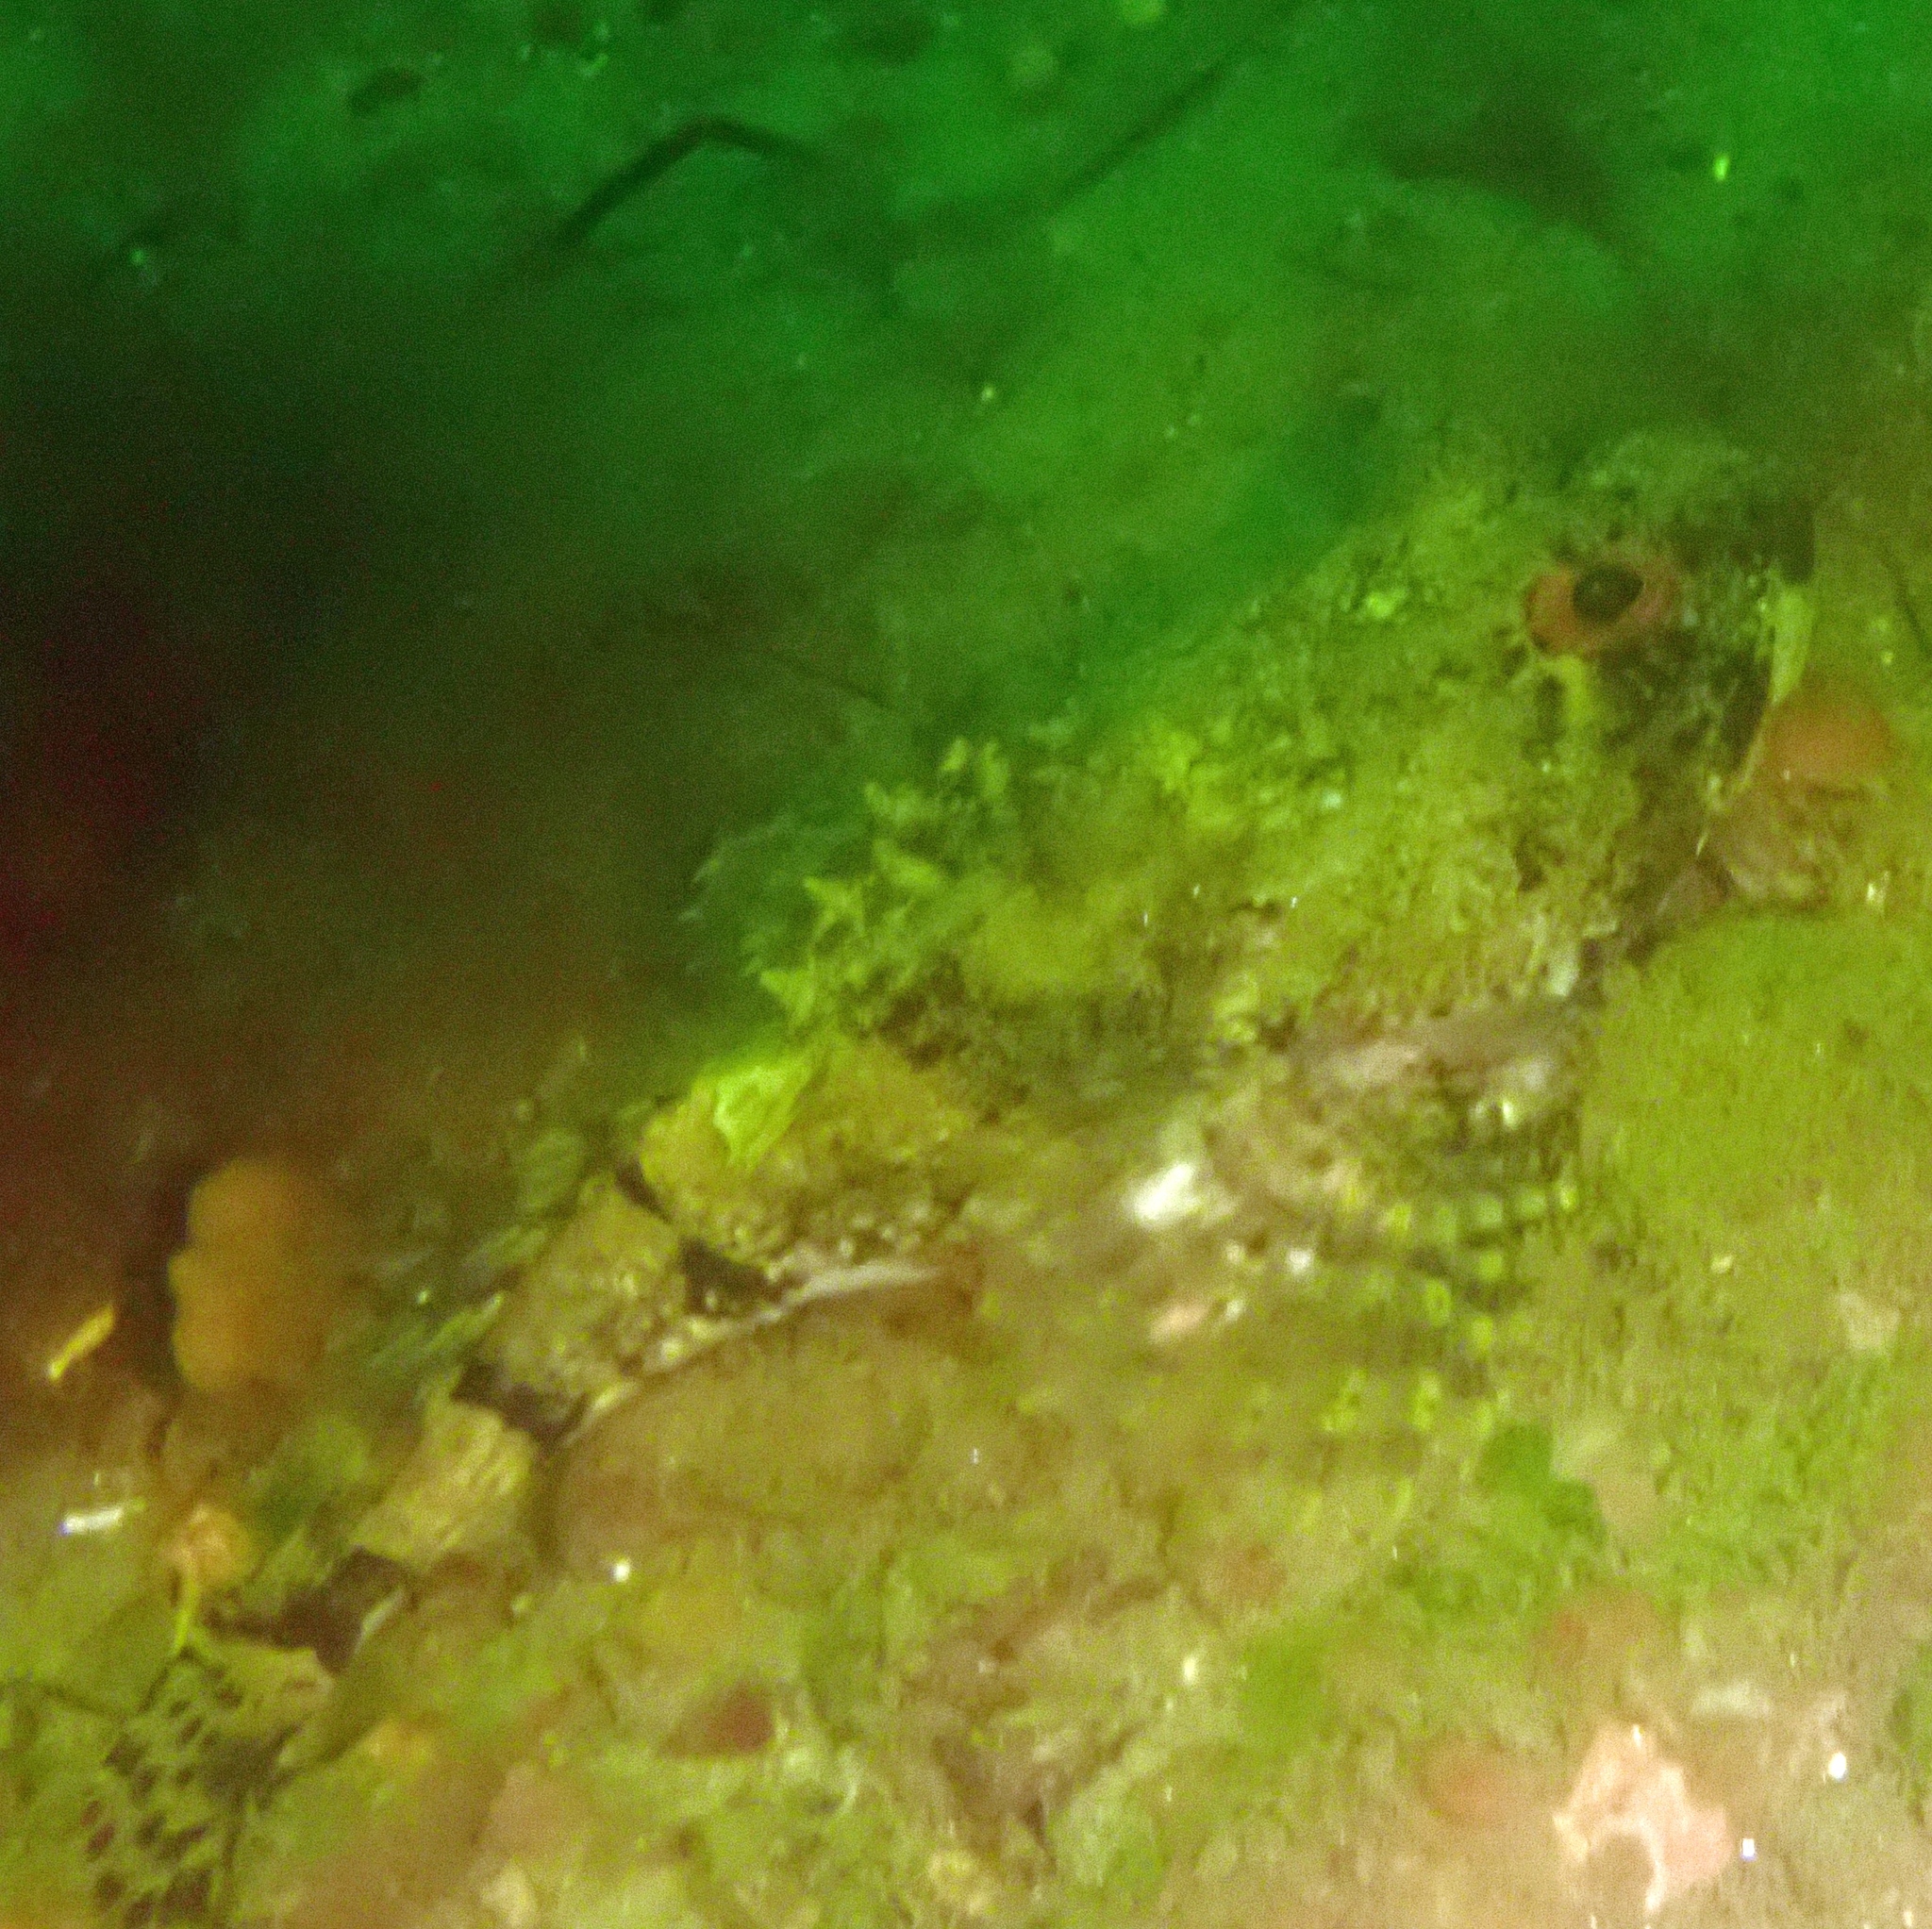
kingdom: Animalia
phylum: Chordata
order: Scorpaeniformes
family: Cottidae
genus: Myoxocephalus
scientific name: Myoxocephalus scorpius
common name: Shorthorn sculpin
